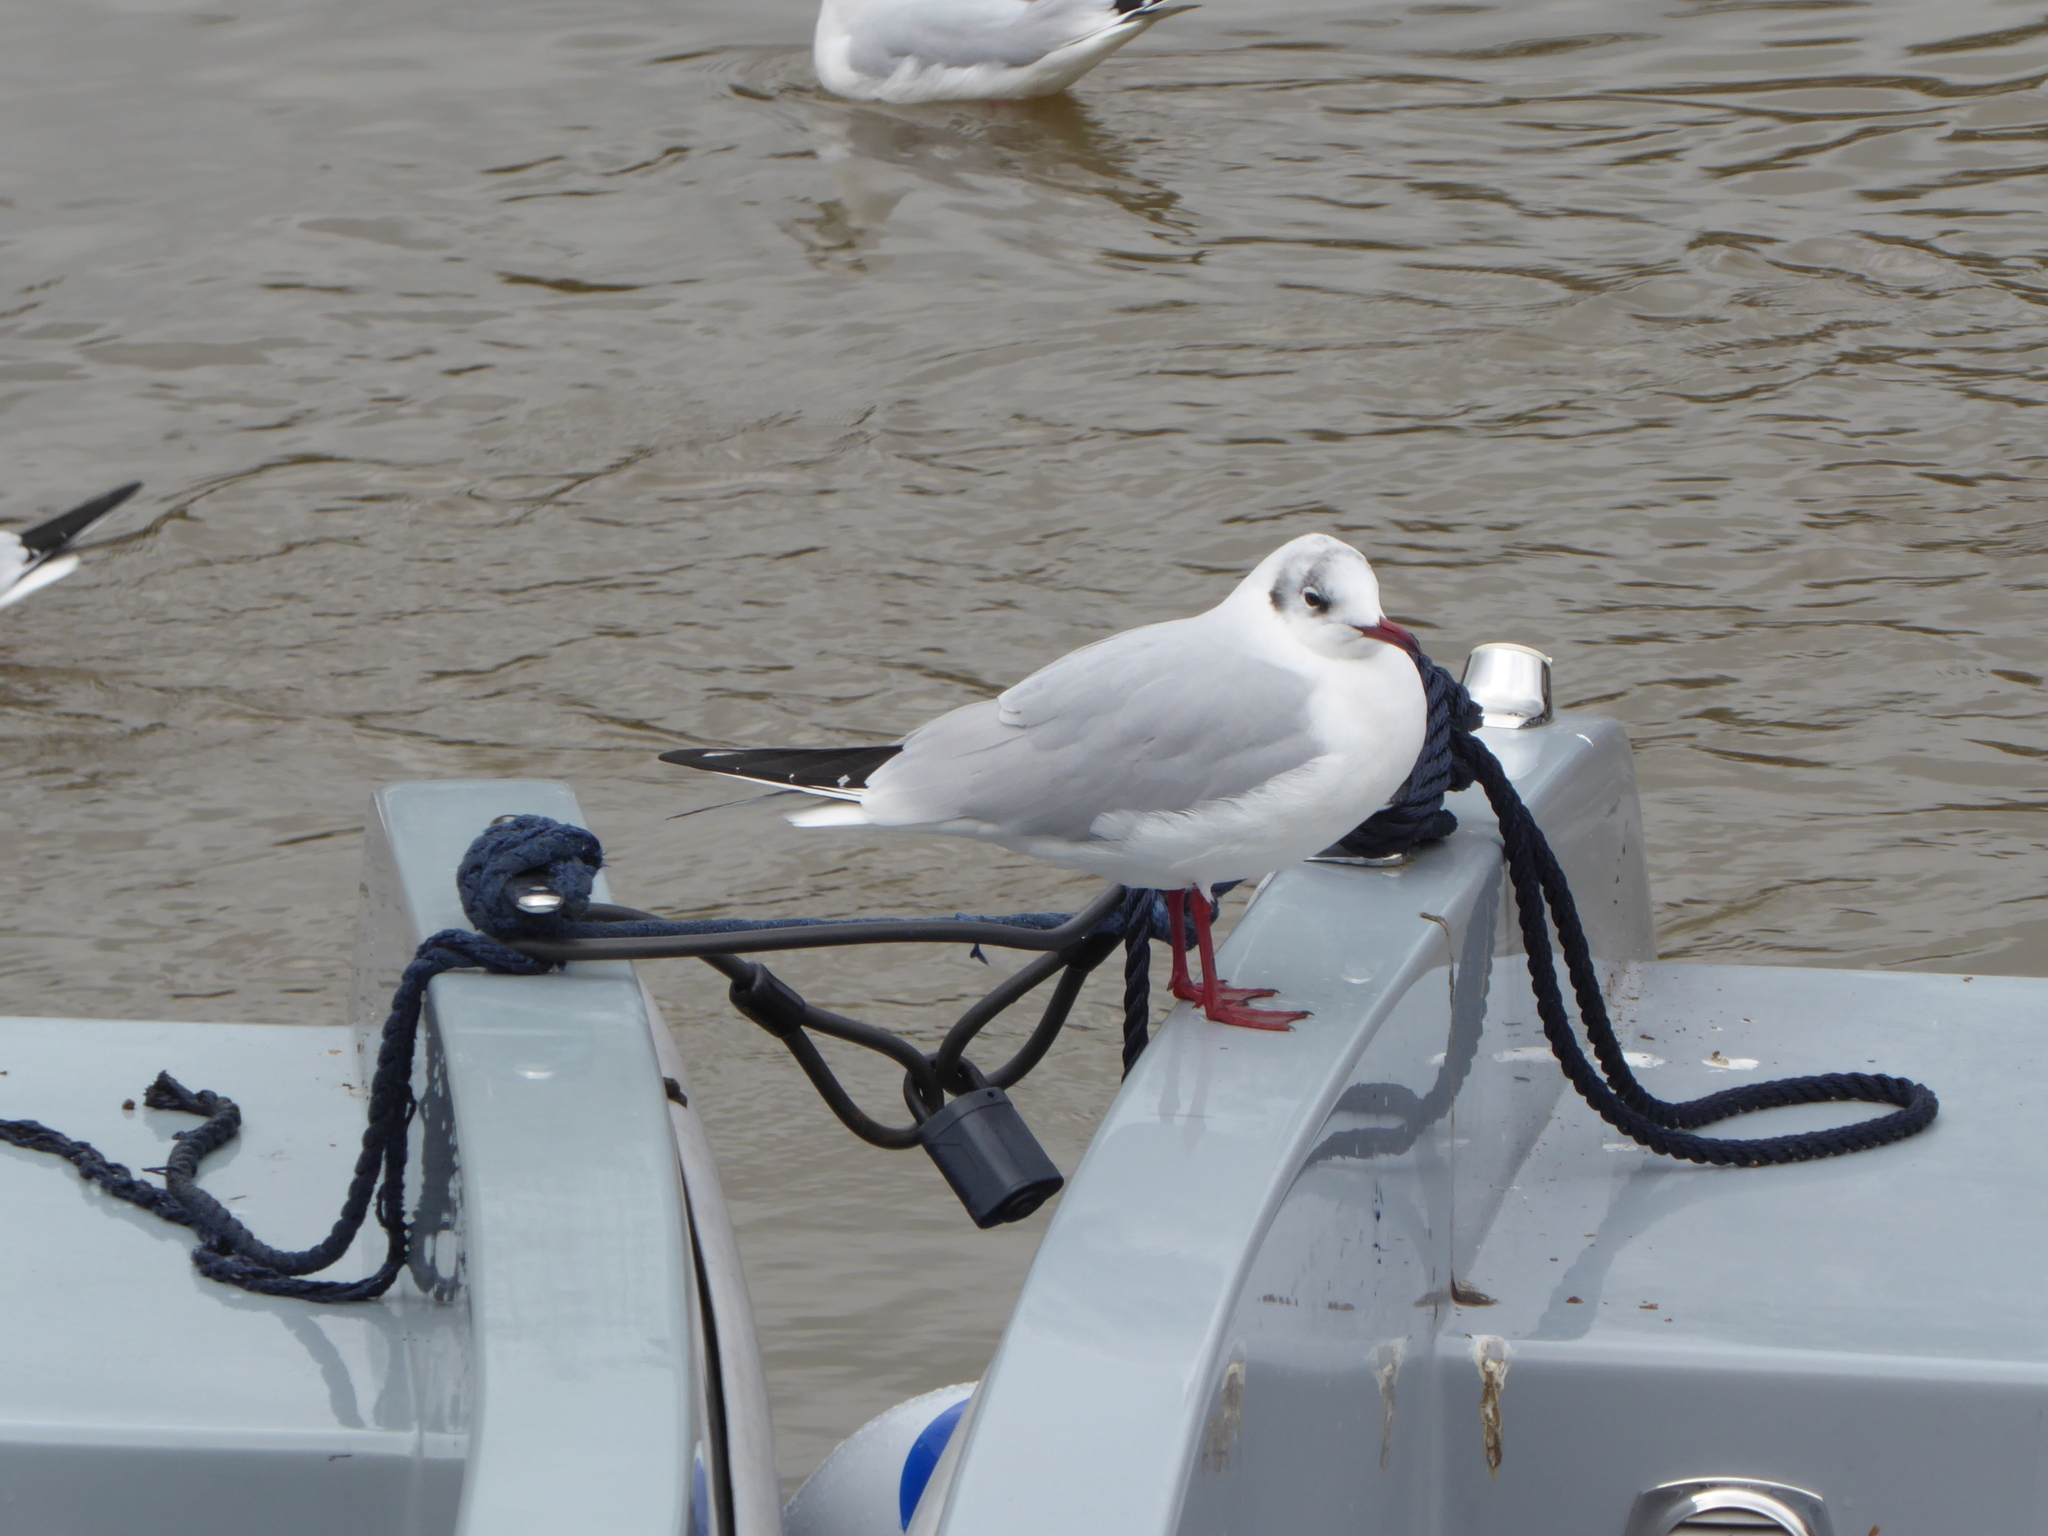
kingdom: Animalia
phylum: Chordata
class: Aves
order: Charadriiformes
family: Laridae
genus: Chroicocephalus
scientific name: Chroicocephalus ridibundus
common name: Black-headed gull
